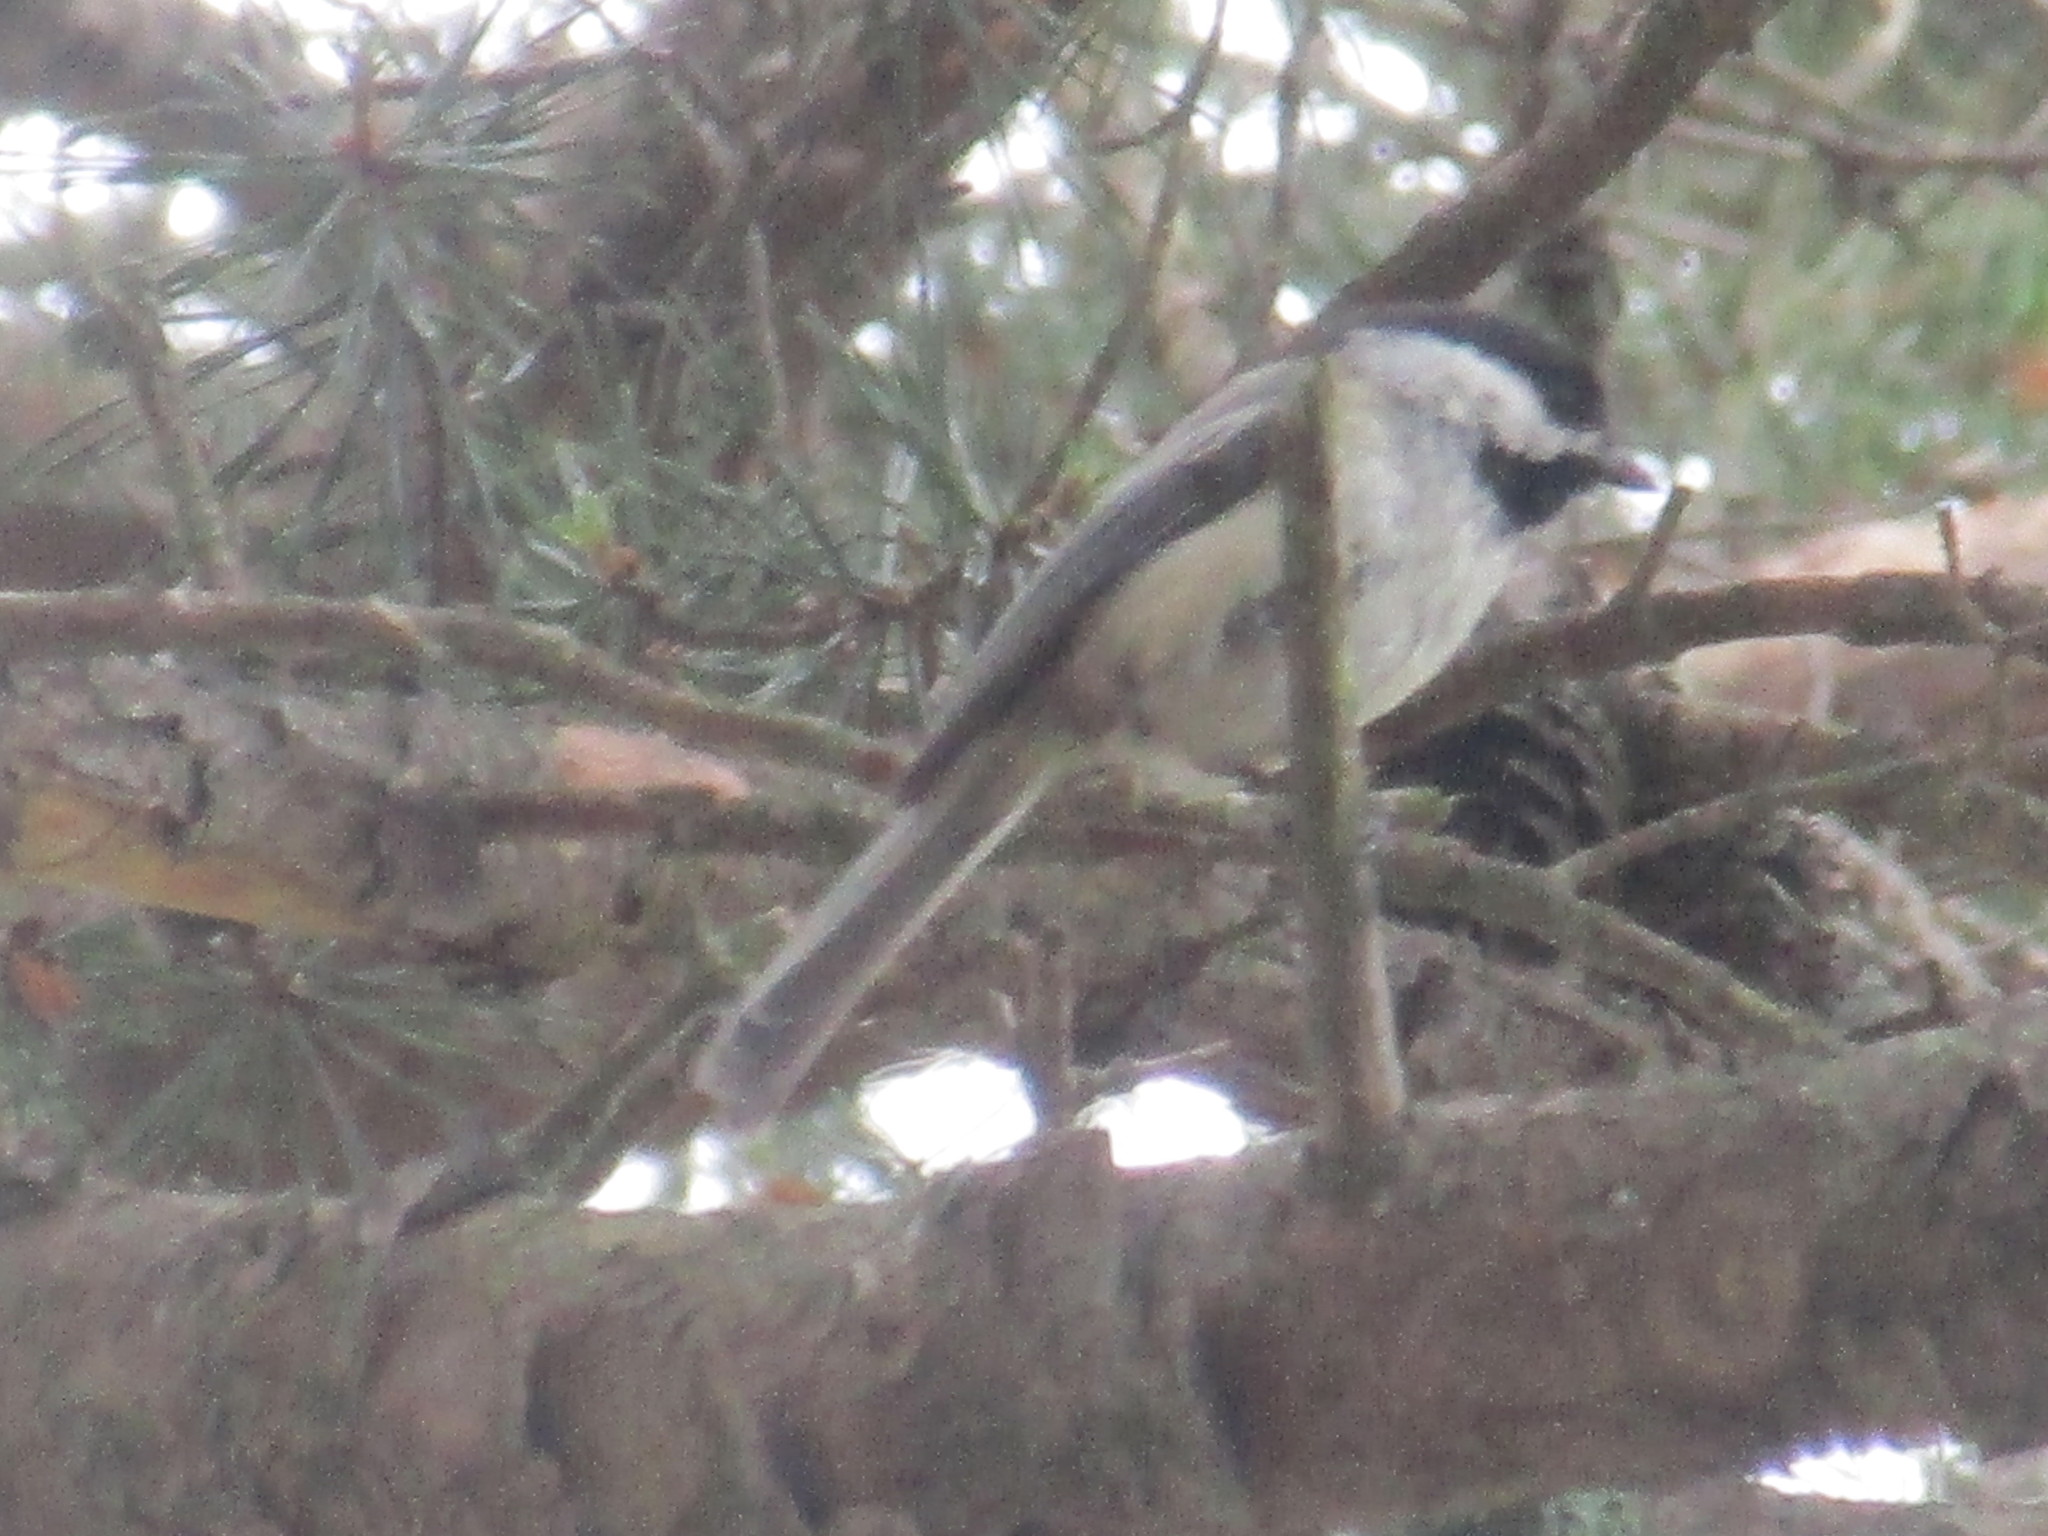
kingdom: Animalia
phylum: Chordata
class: Aves
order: Passeriformes
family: Paridae
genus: Poecile
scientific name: Poecile atricapillus
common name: Black-capped chickadee
